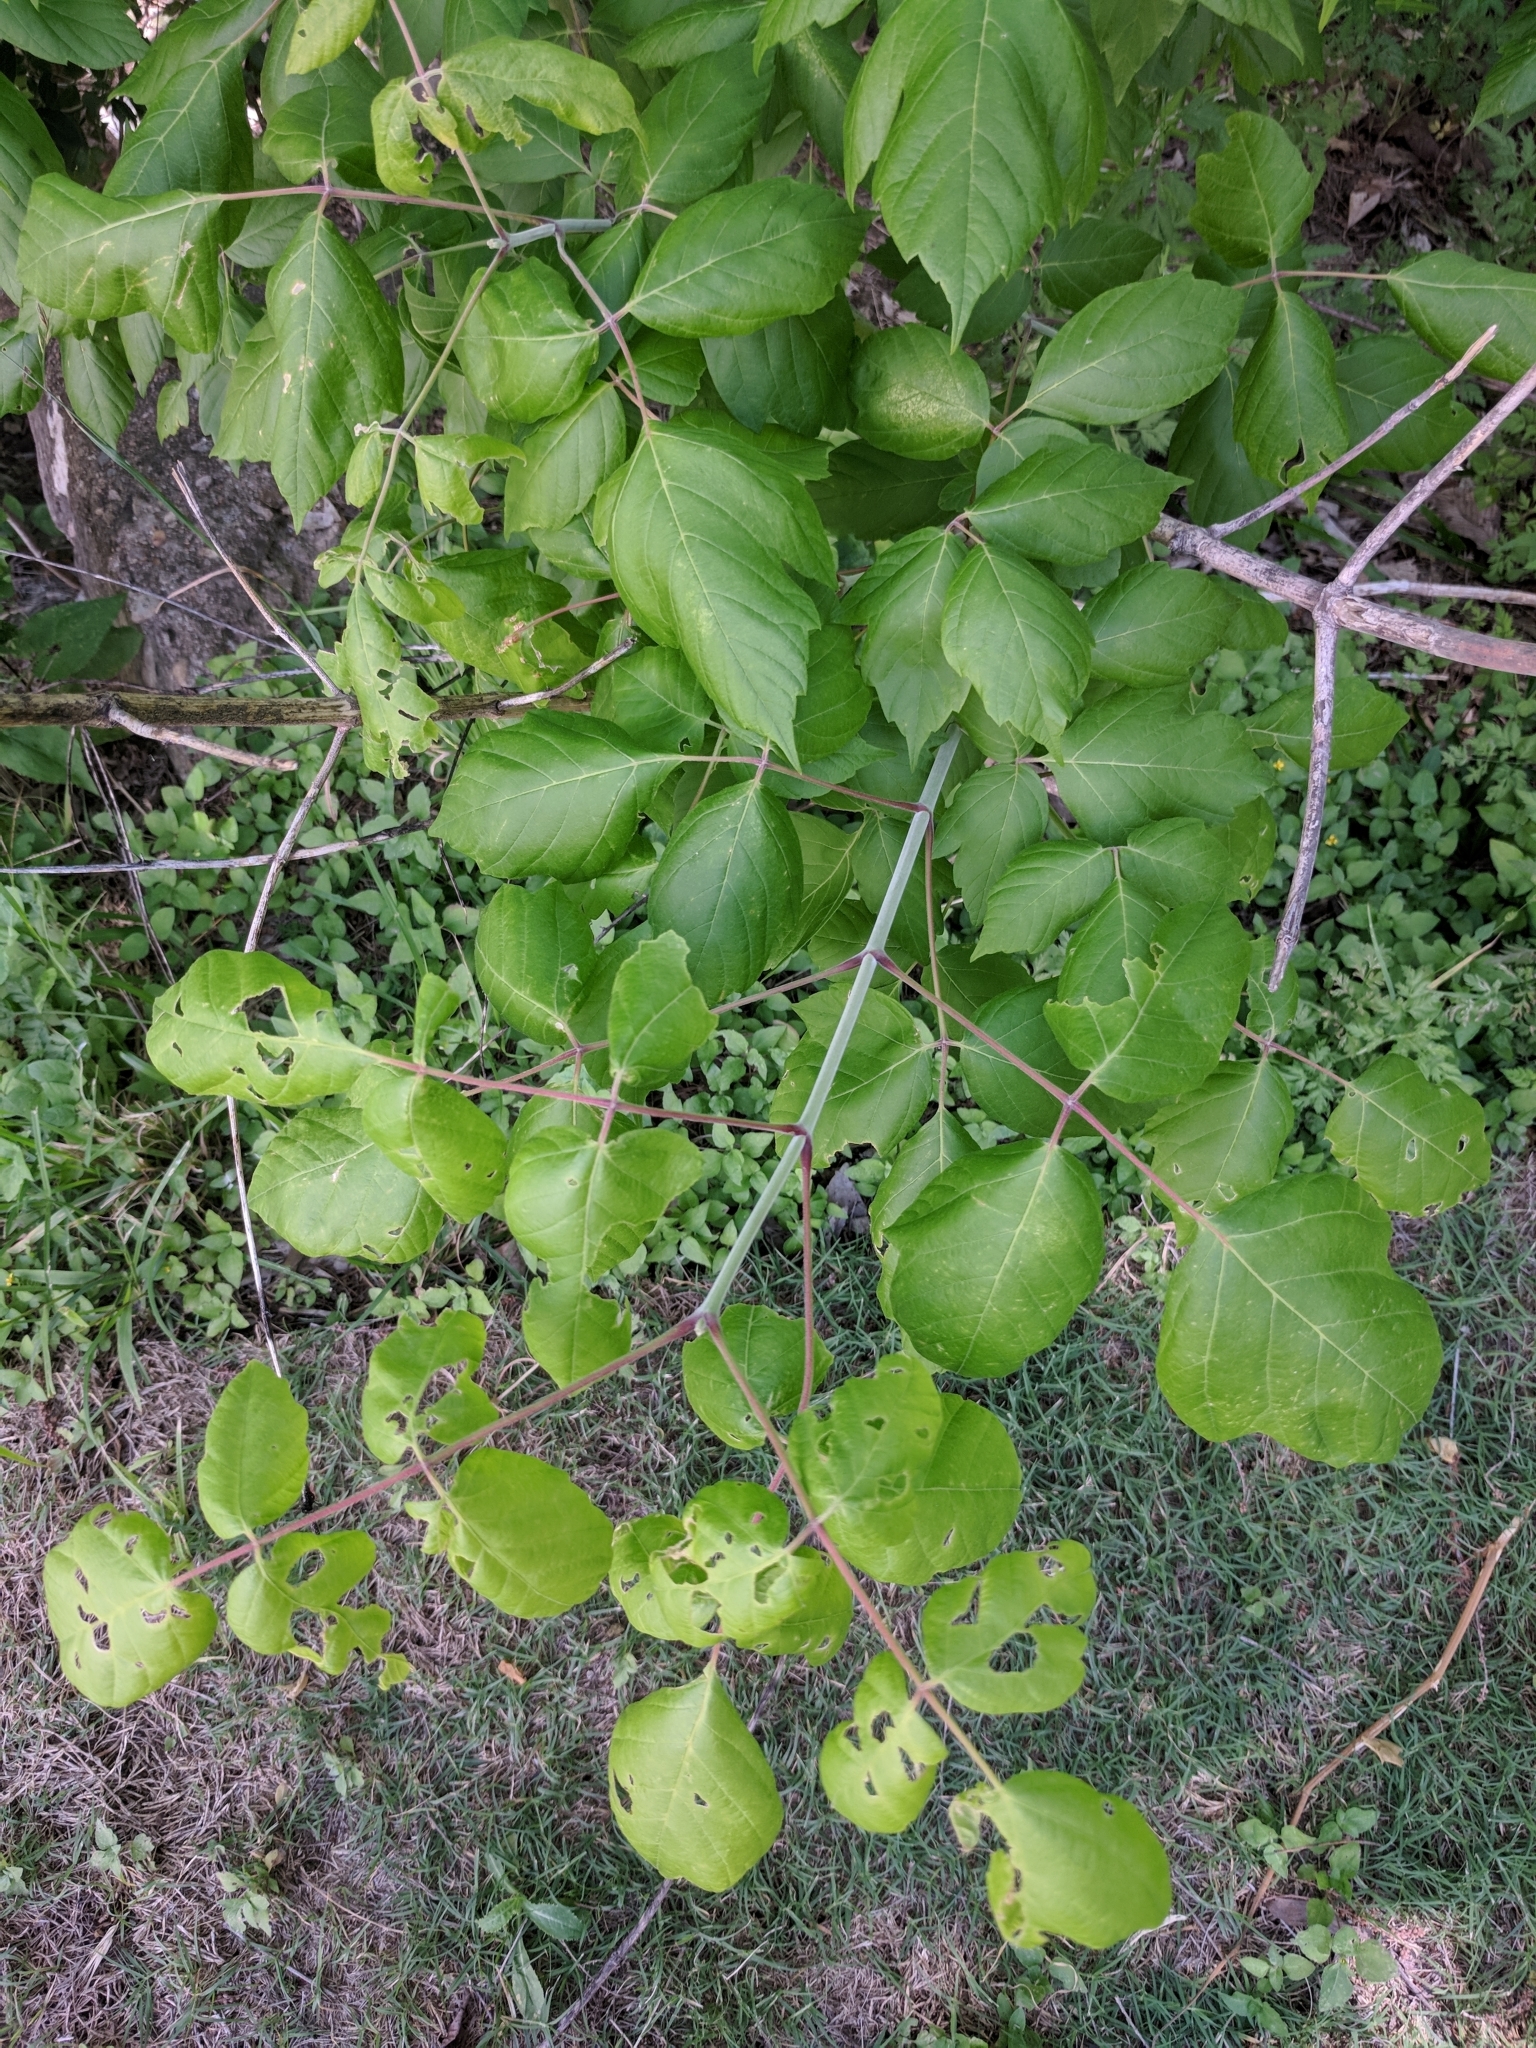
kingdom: Plantae
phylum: Tracheophyta
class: Magnoliopsida
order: Sapindales
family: Sapindaceae
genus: Acer
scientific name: Acer negundo
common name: Ashleaf maple
